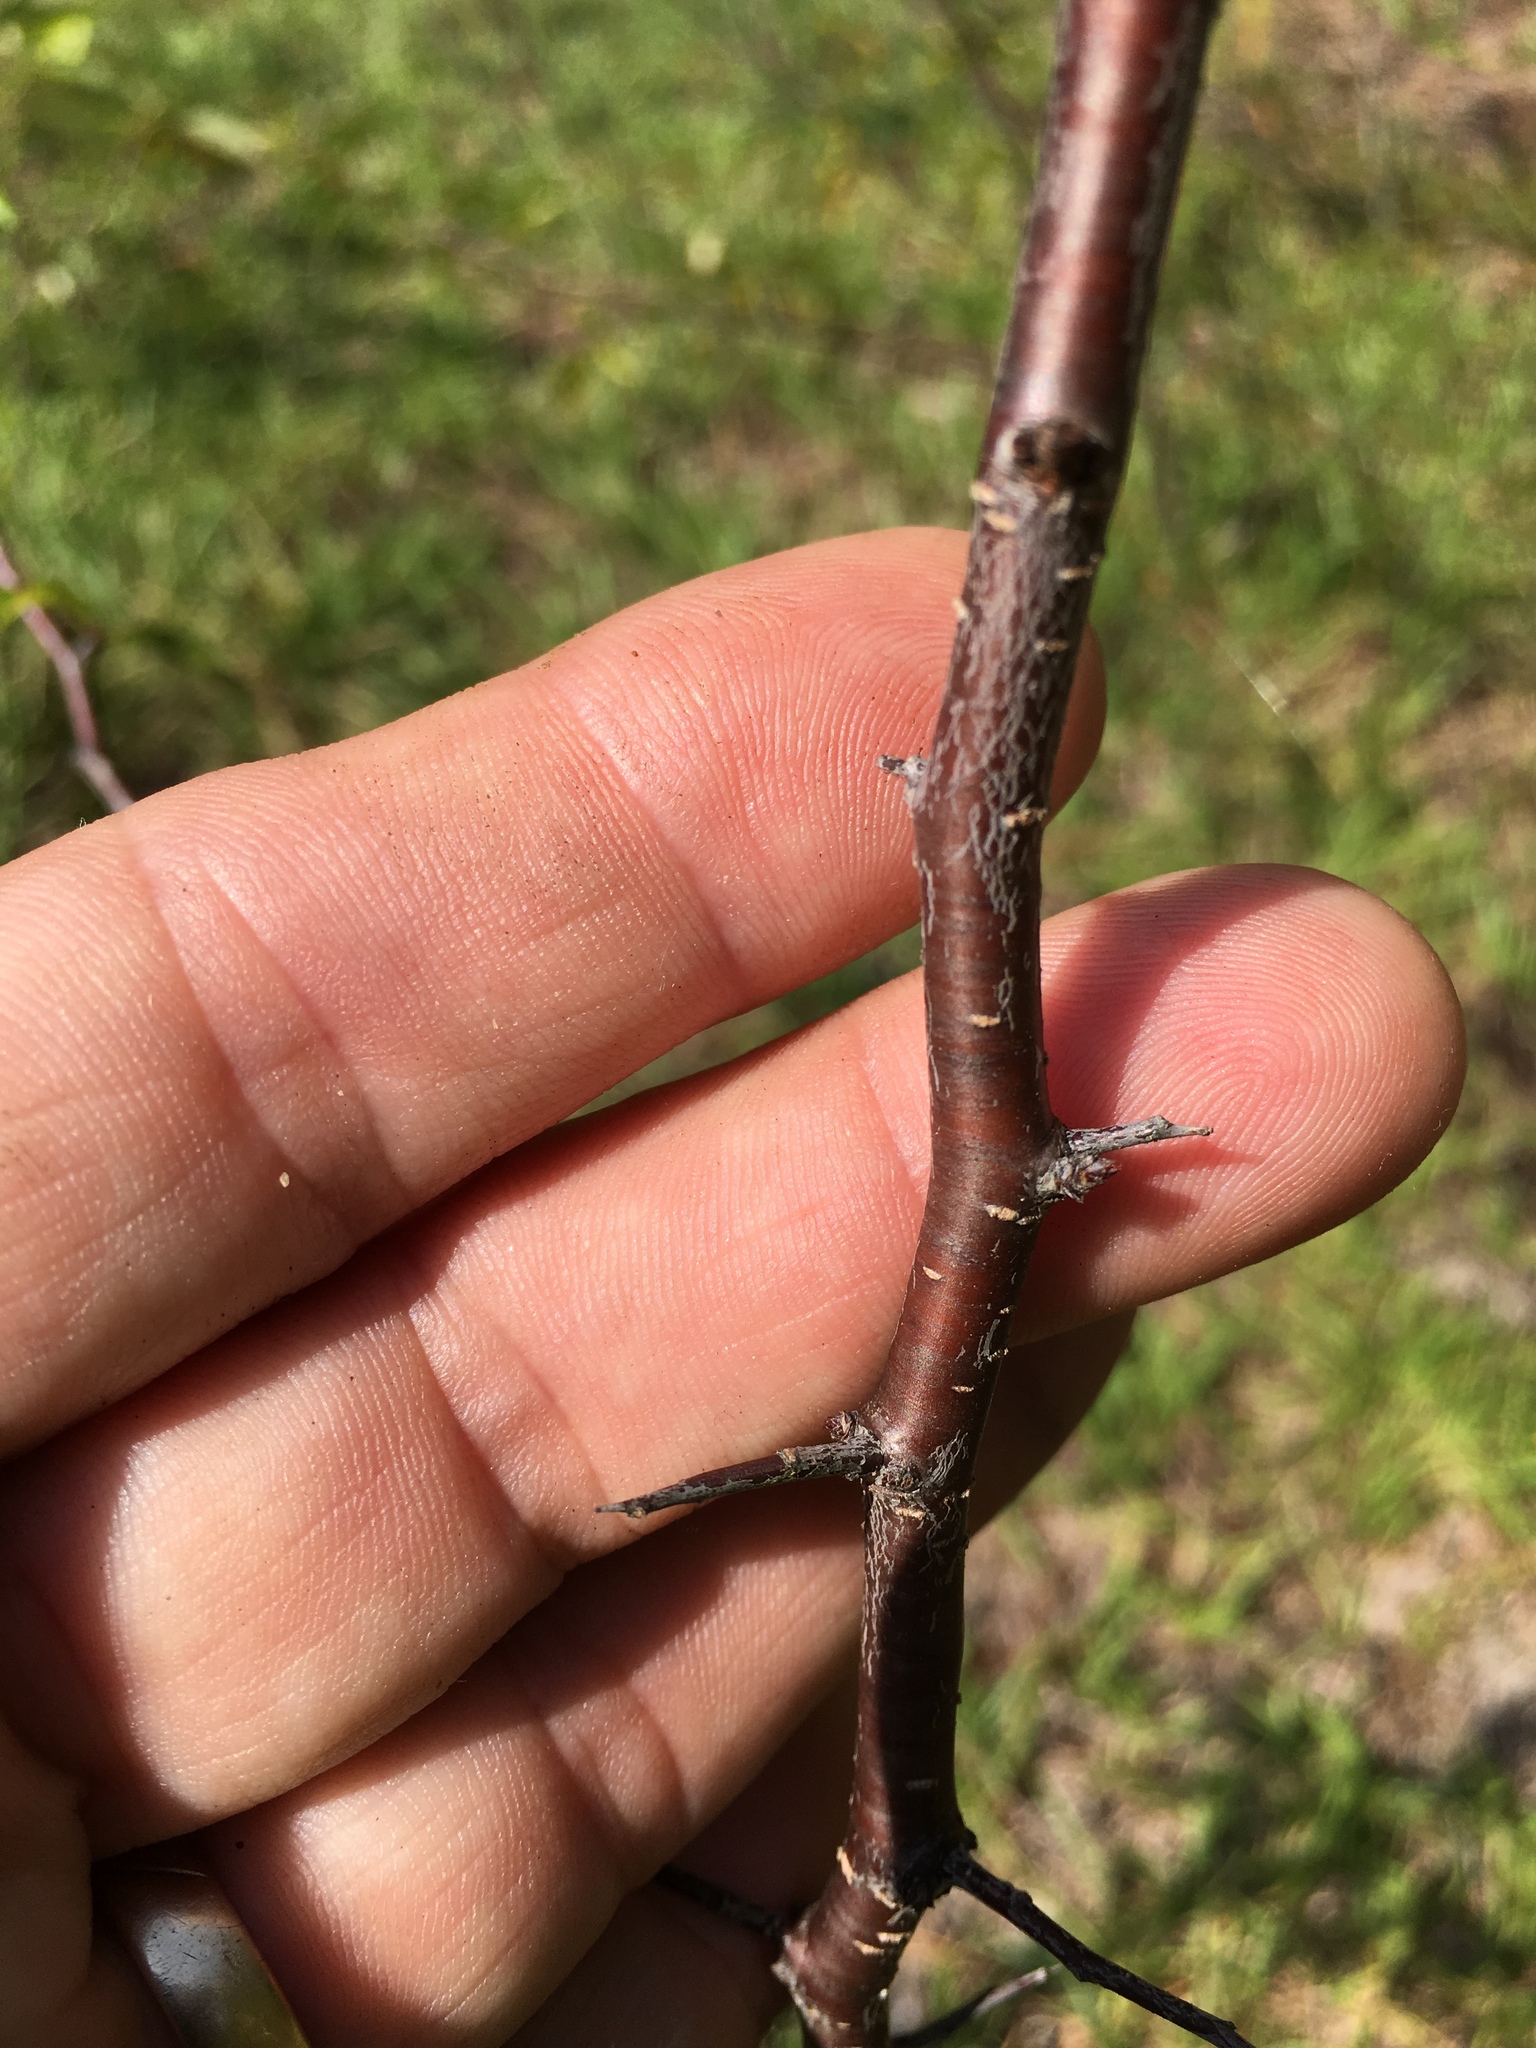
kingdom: Plantae
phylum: Tracheophyta
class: Magnoliopsida
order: Rosales
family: Rosaceae
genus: Prunus
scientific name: Prunus angustifolia
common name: Cherokee plum
